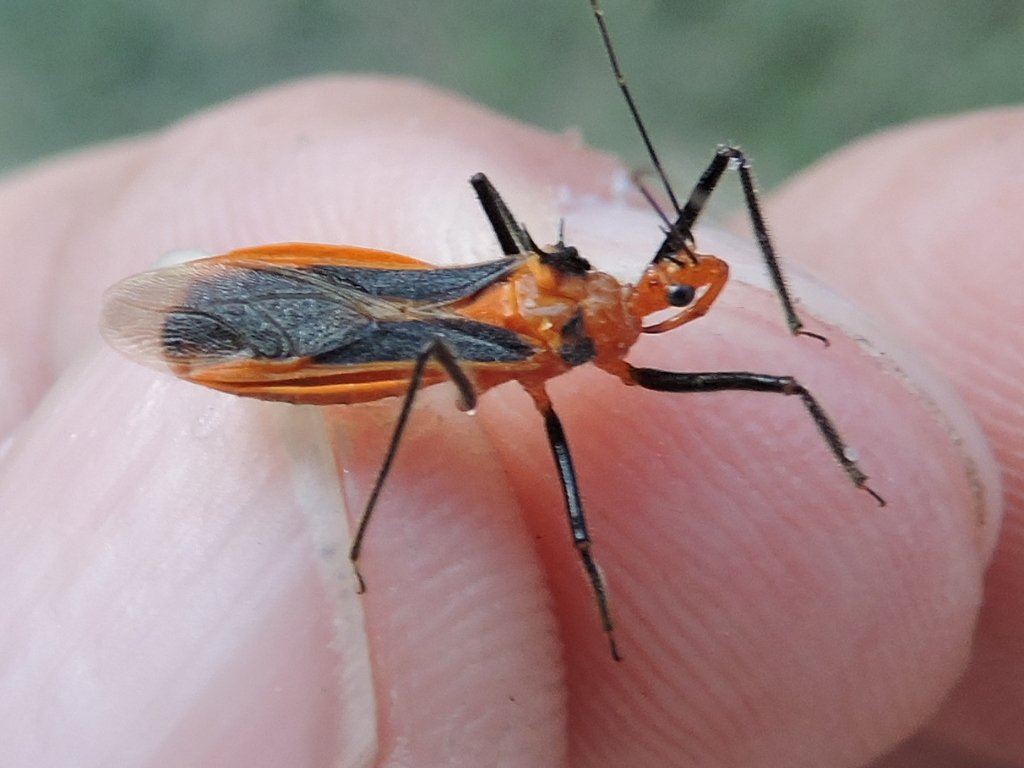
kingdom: Animalia
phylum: Arthropoda
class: Insecta
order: Hemiptera
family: Reduviidae
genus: Repipta
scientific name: Repipta taurus
